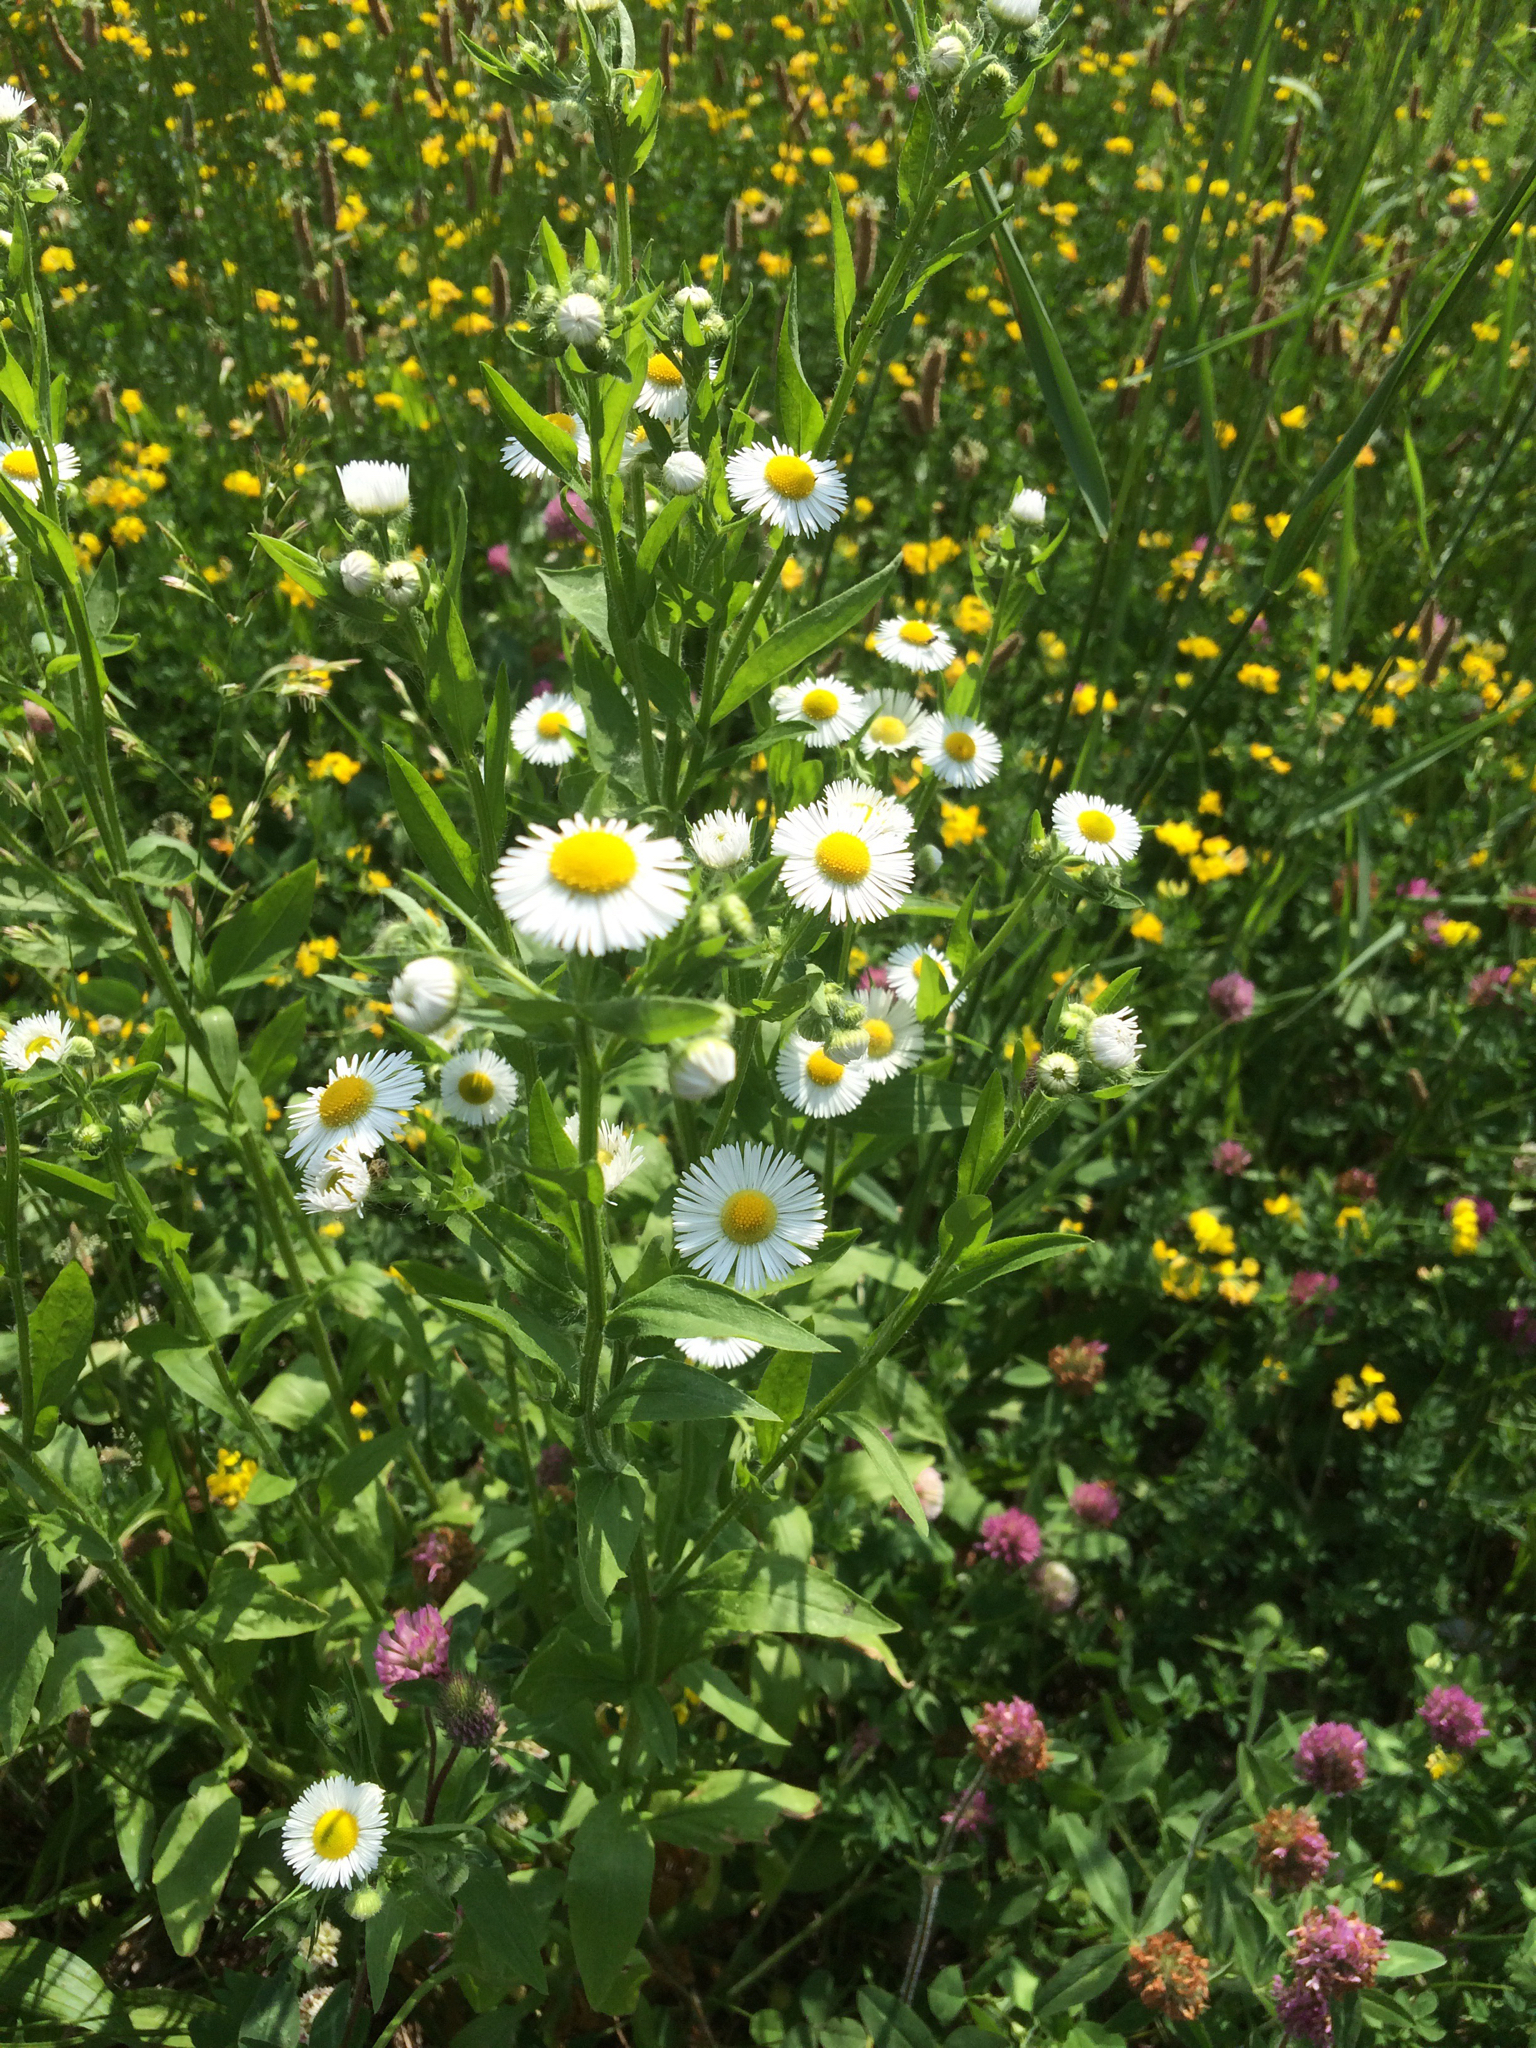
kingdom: Plantae
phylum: Tracheophyta
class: Magnoliopsida
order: Asterales
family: Asteraceae
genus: Erigeron
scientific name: Erigeron philadelphicus
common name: Robin's-plantain
